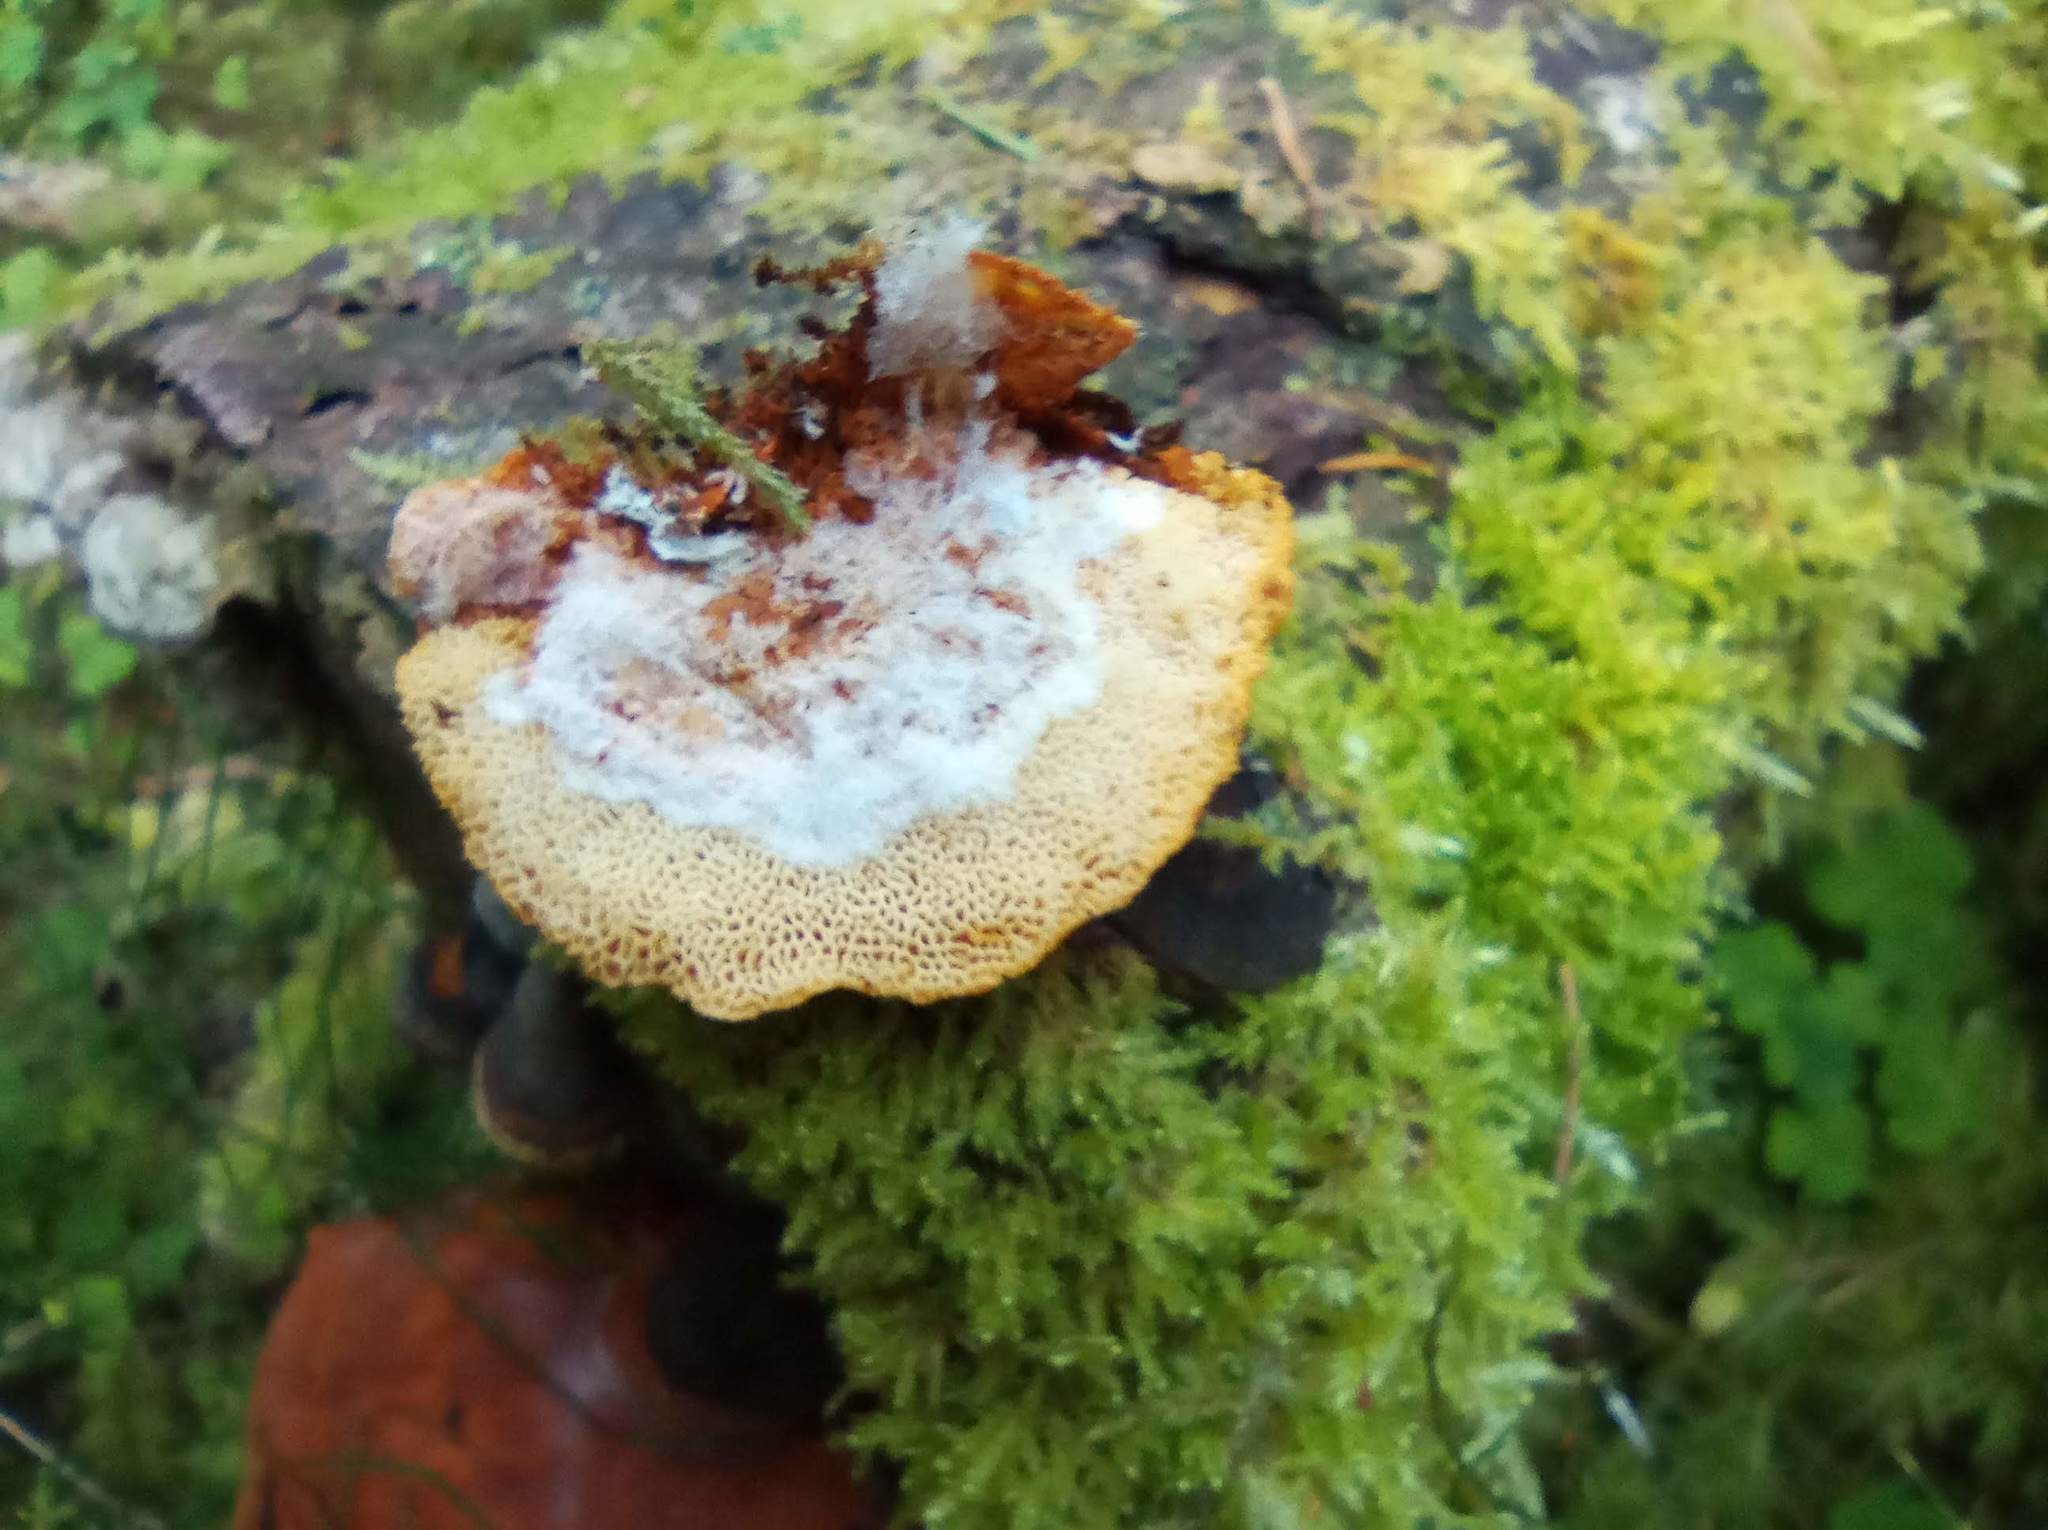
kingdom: Fungi
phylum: Basidiomycota
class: Agaricomycetes
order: Polyporales
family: Pycnoporellaceae
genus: Pycnoporellus
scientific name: Pycnoporellus fulgens
